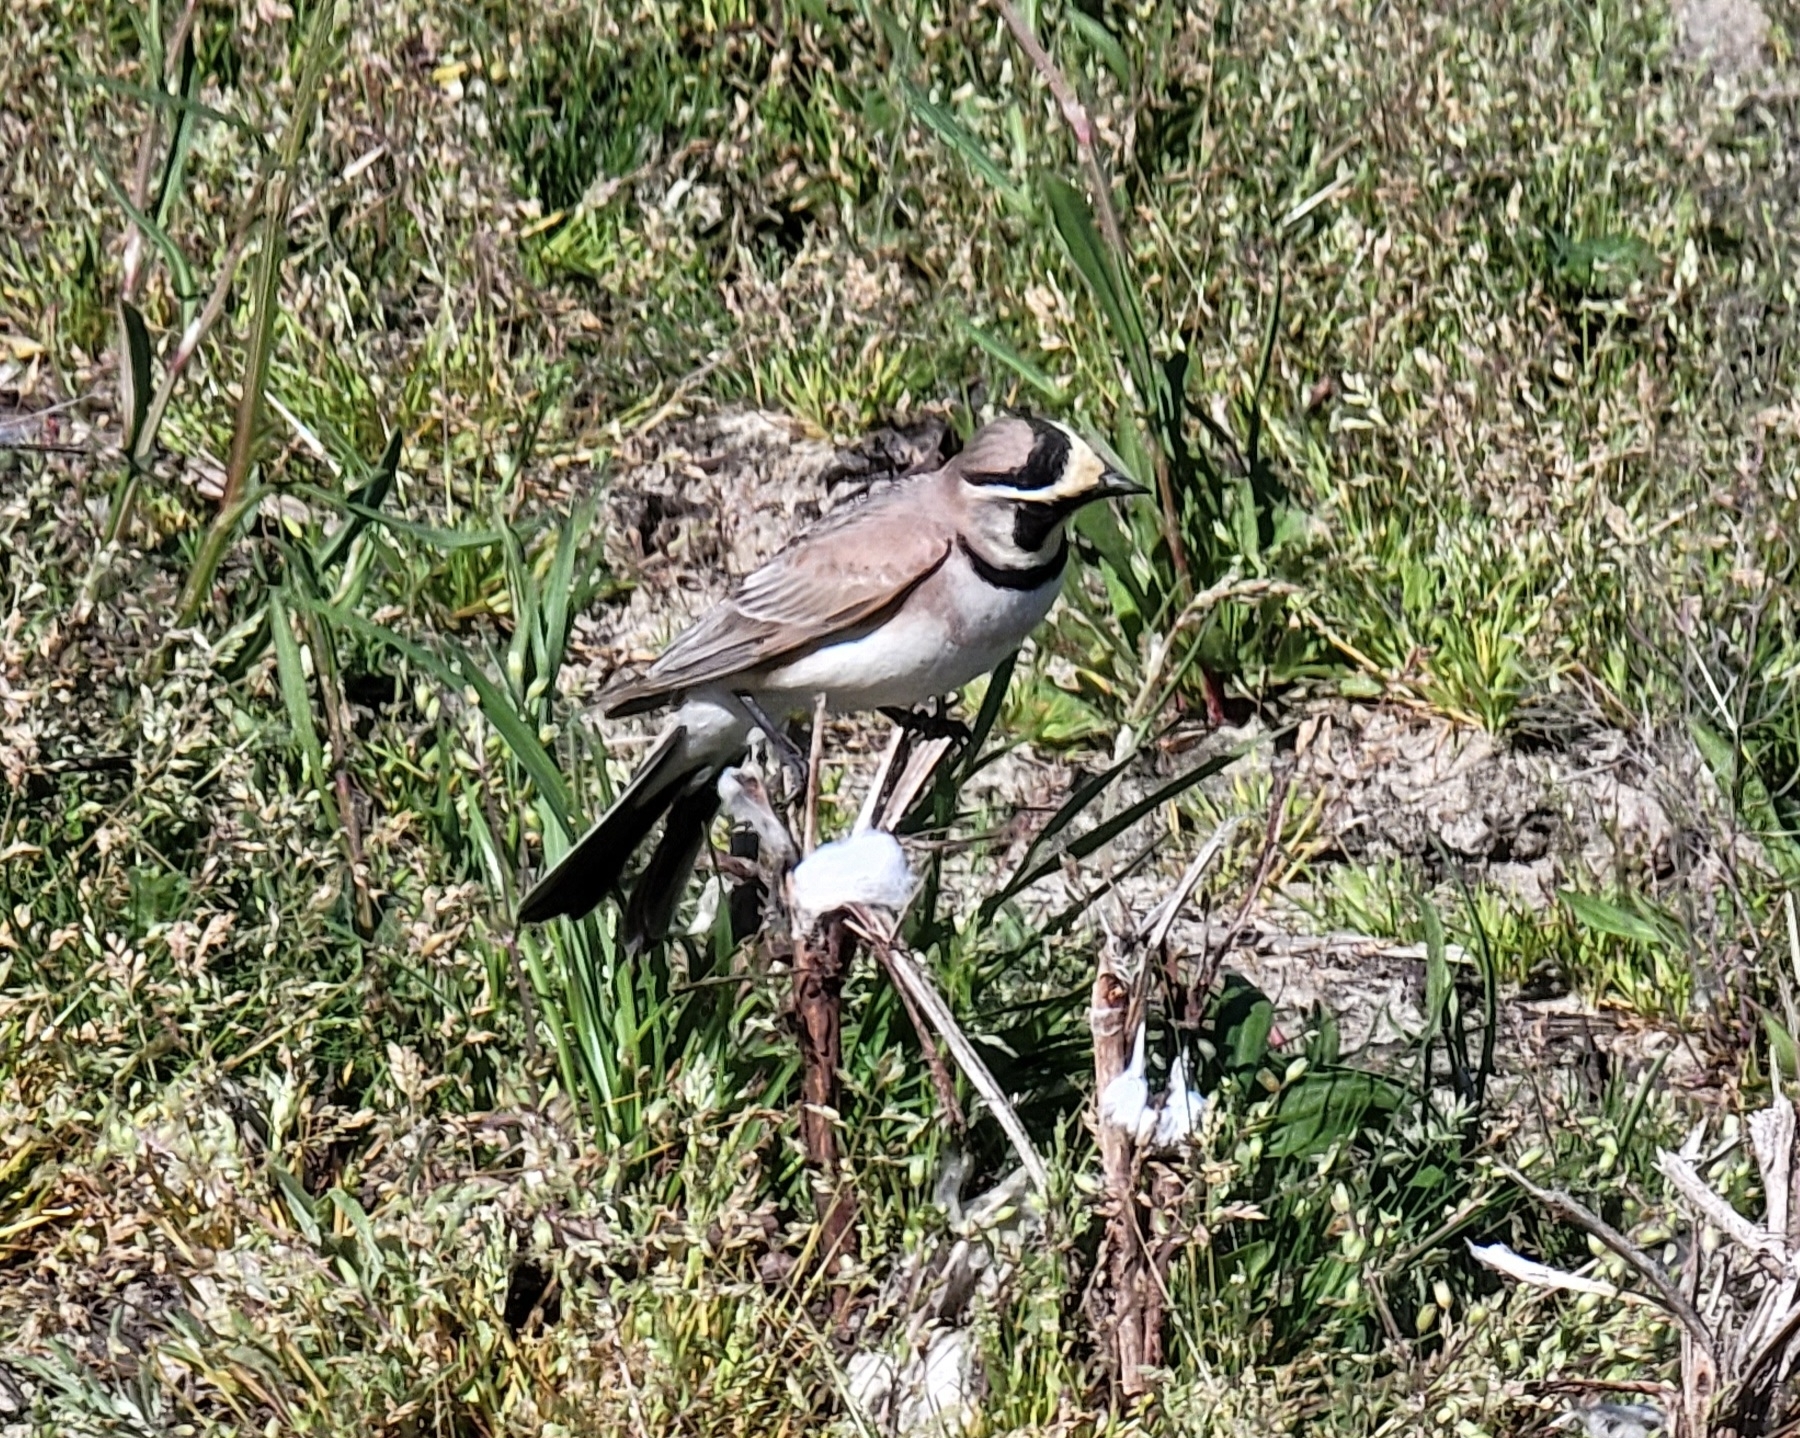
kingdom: Animalia
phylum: Chordata
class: Aves
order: Passeriformes
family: Alaudidae
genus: Eremophila
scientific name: Eremophila alpestris
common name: Horned lark
